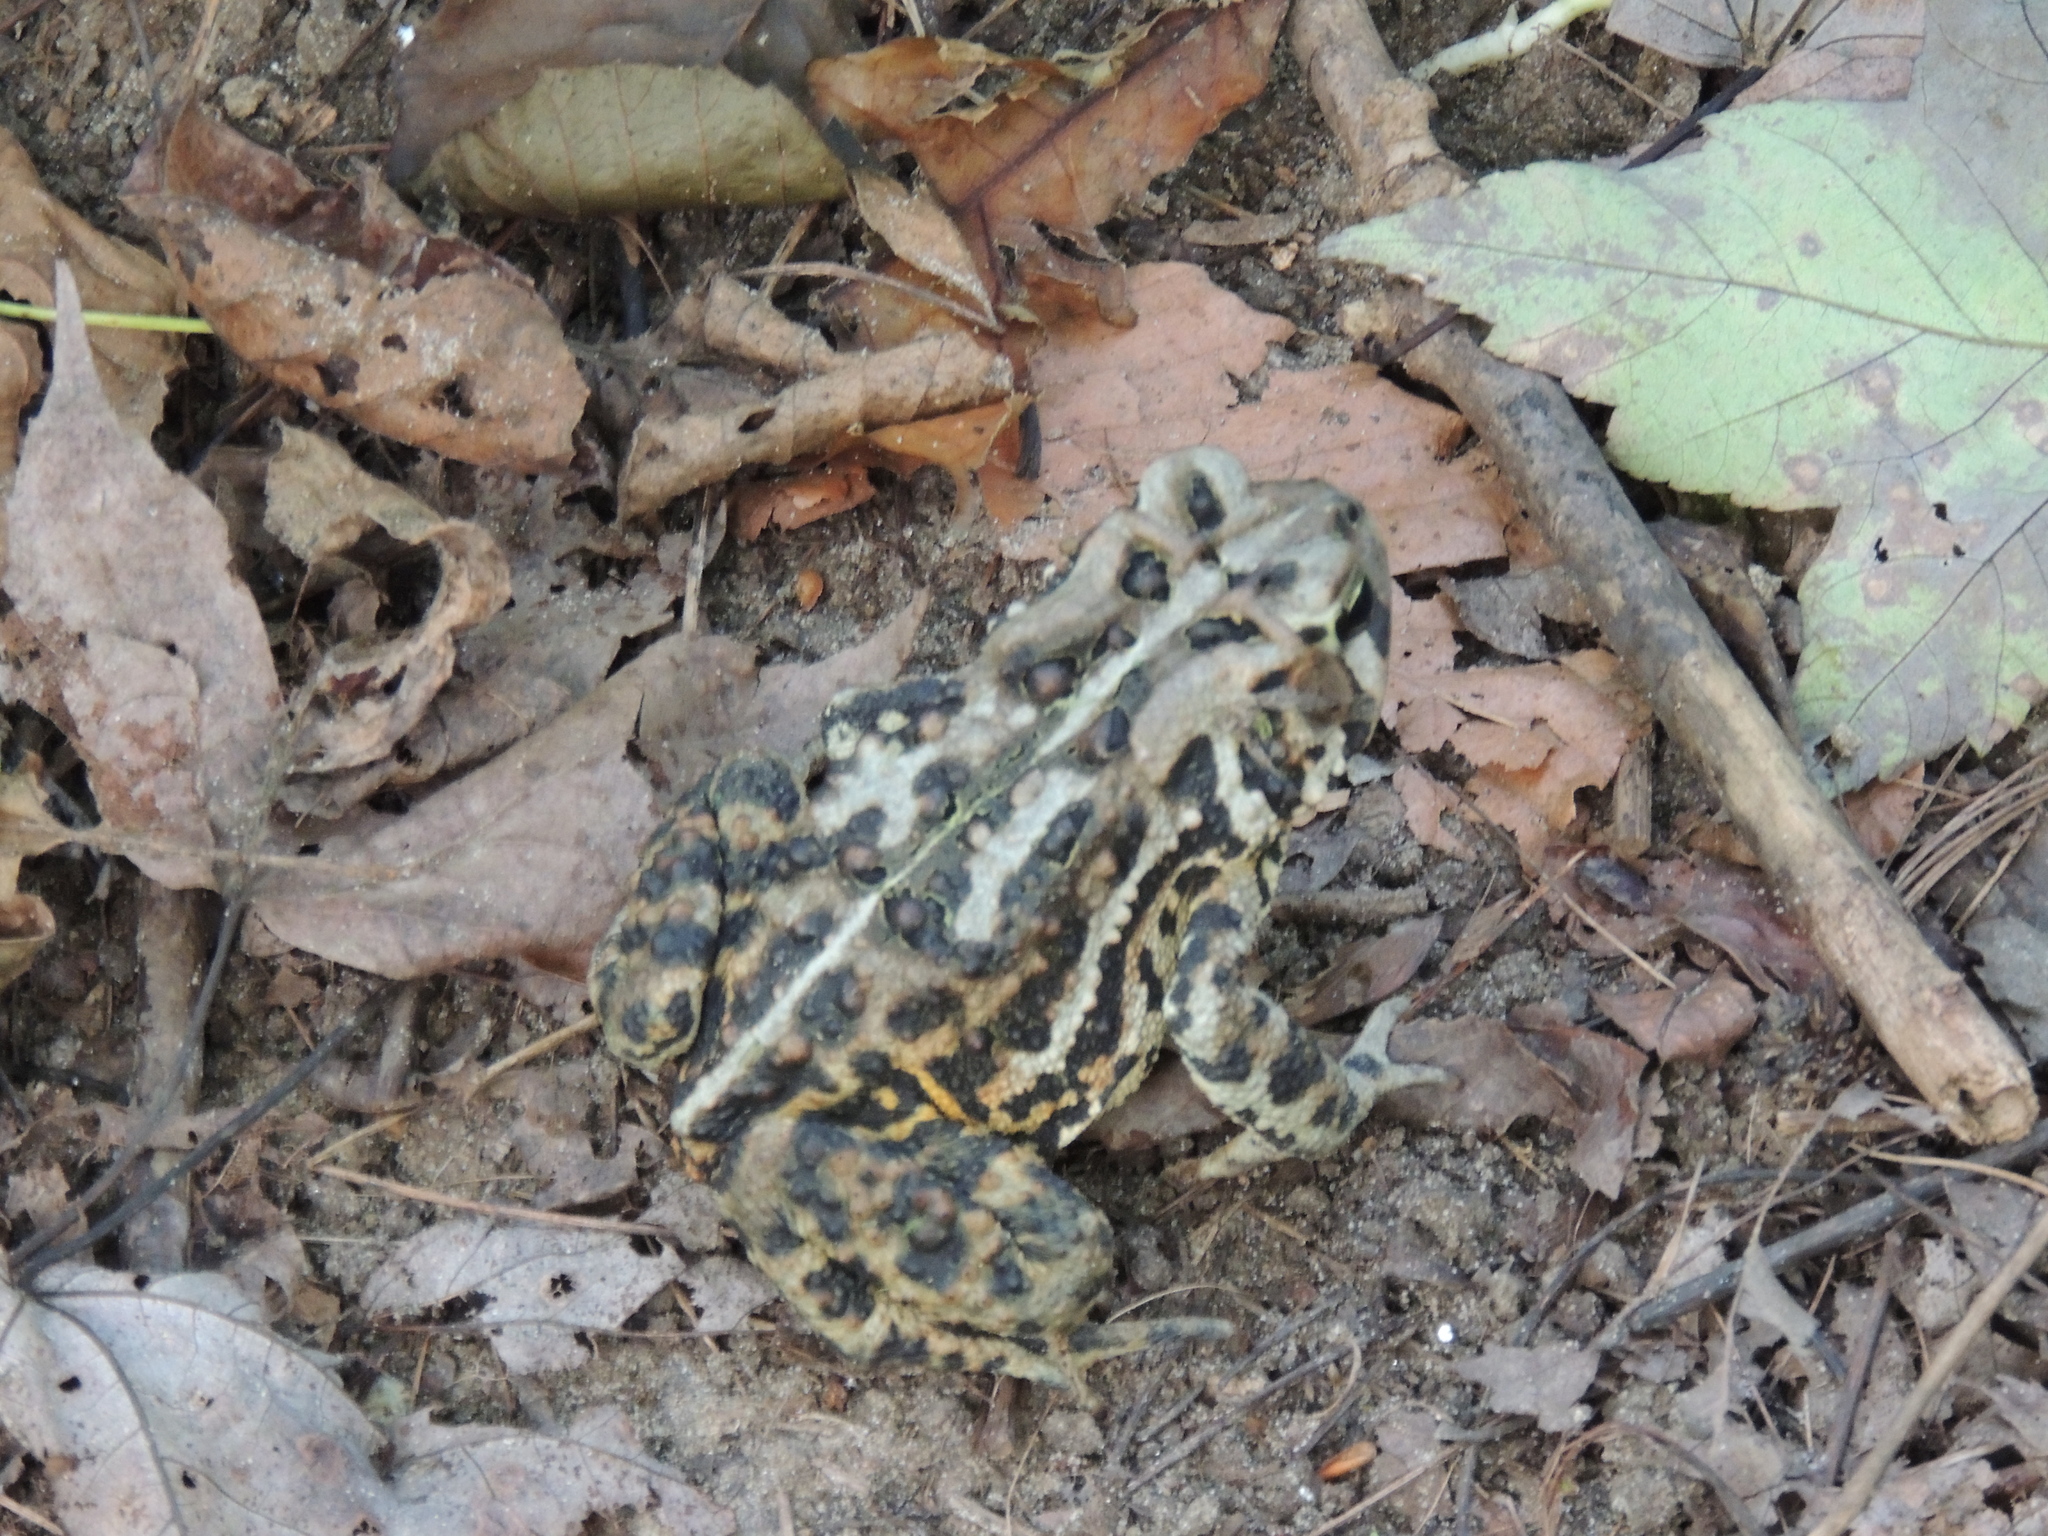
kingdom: Animalia
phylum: Chordata
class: Amphibia
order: Anura
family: Bufonidae
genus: Anaxyrus
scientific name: Anaxyrus americanus
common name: American toad
